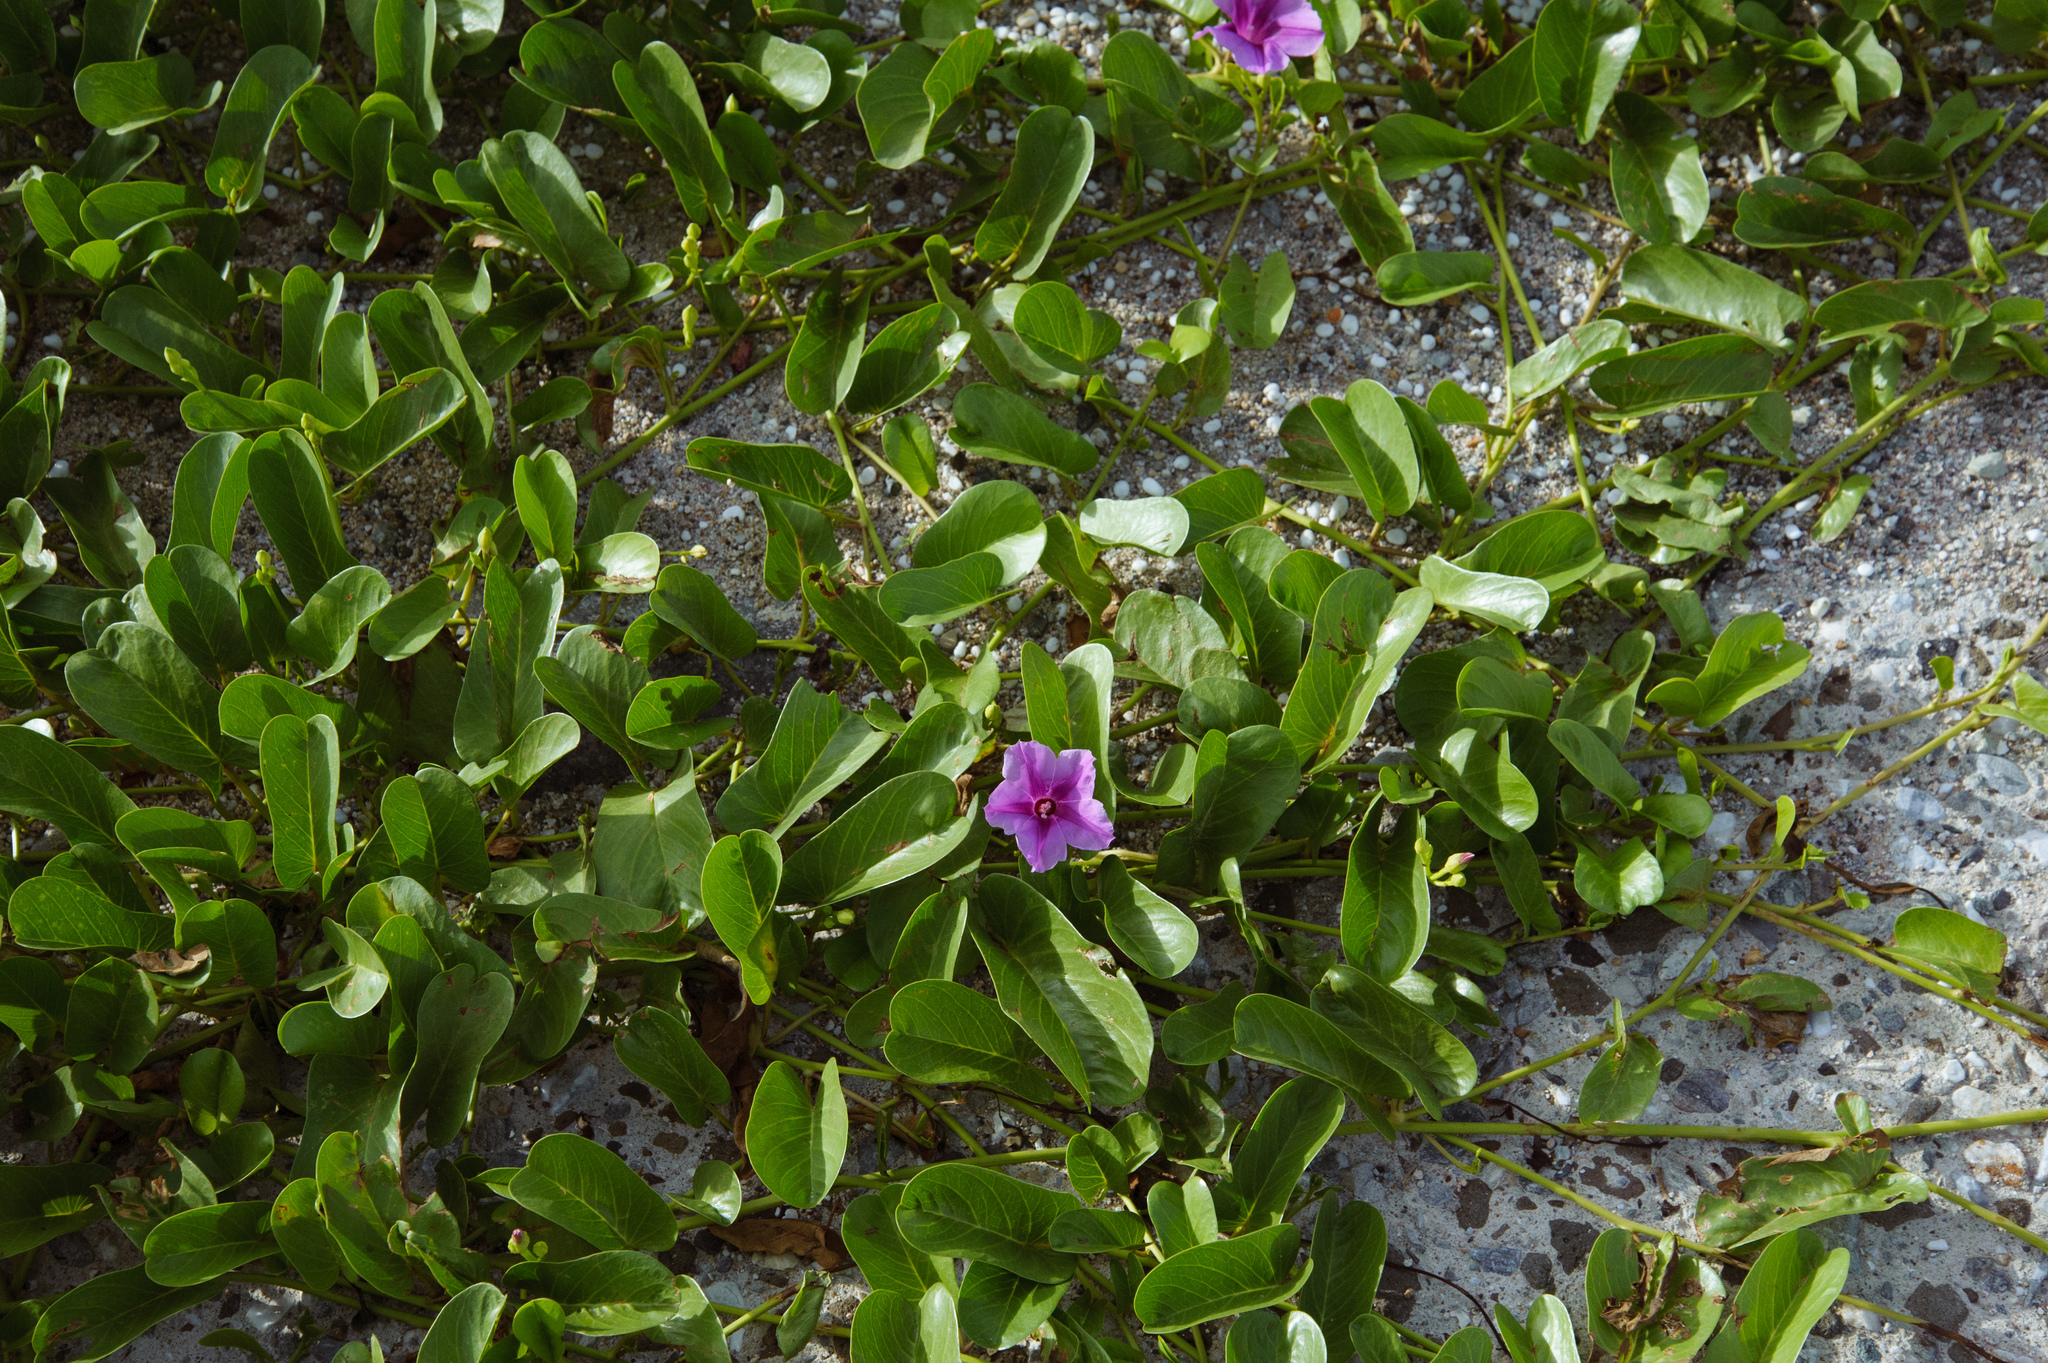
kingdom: Plantae
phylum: Tracheophyta
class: Magnoliopsida
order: Solanales
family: Convolvulaceae
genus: Ipomoea
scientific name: Ipomoea pes-caprae
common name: Beach morning glory
